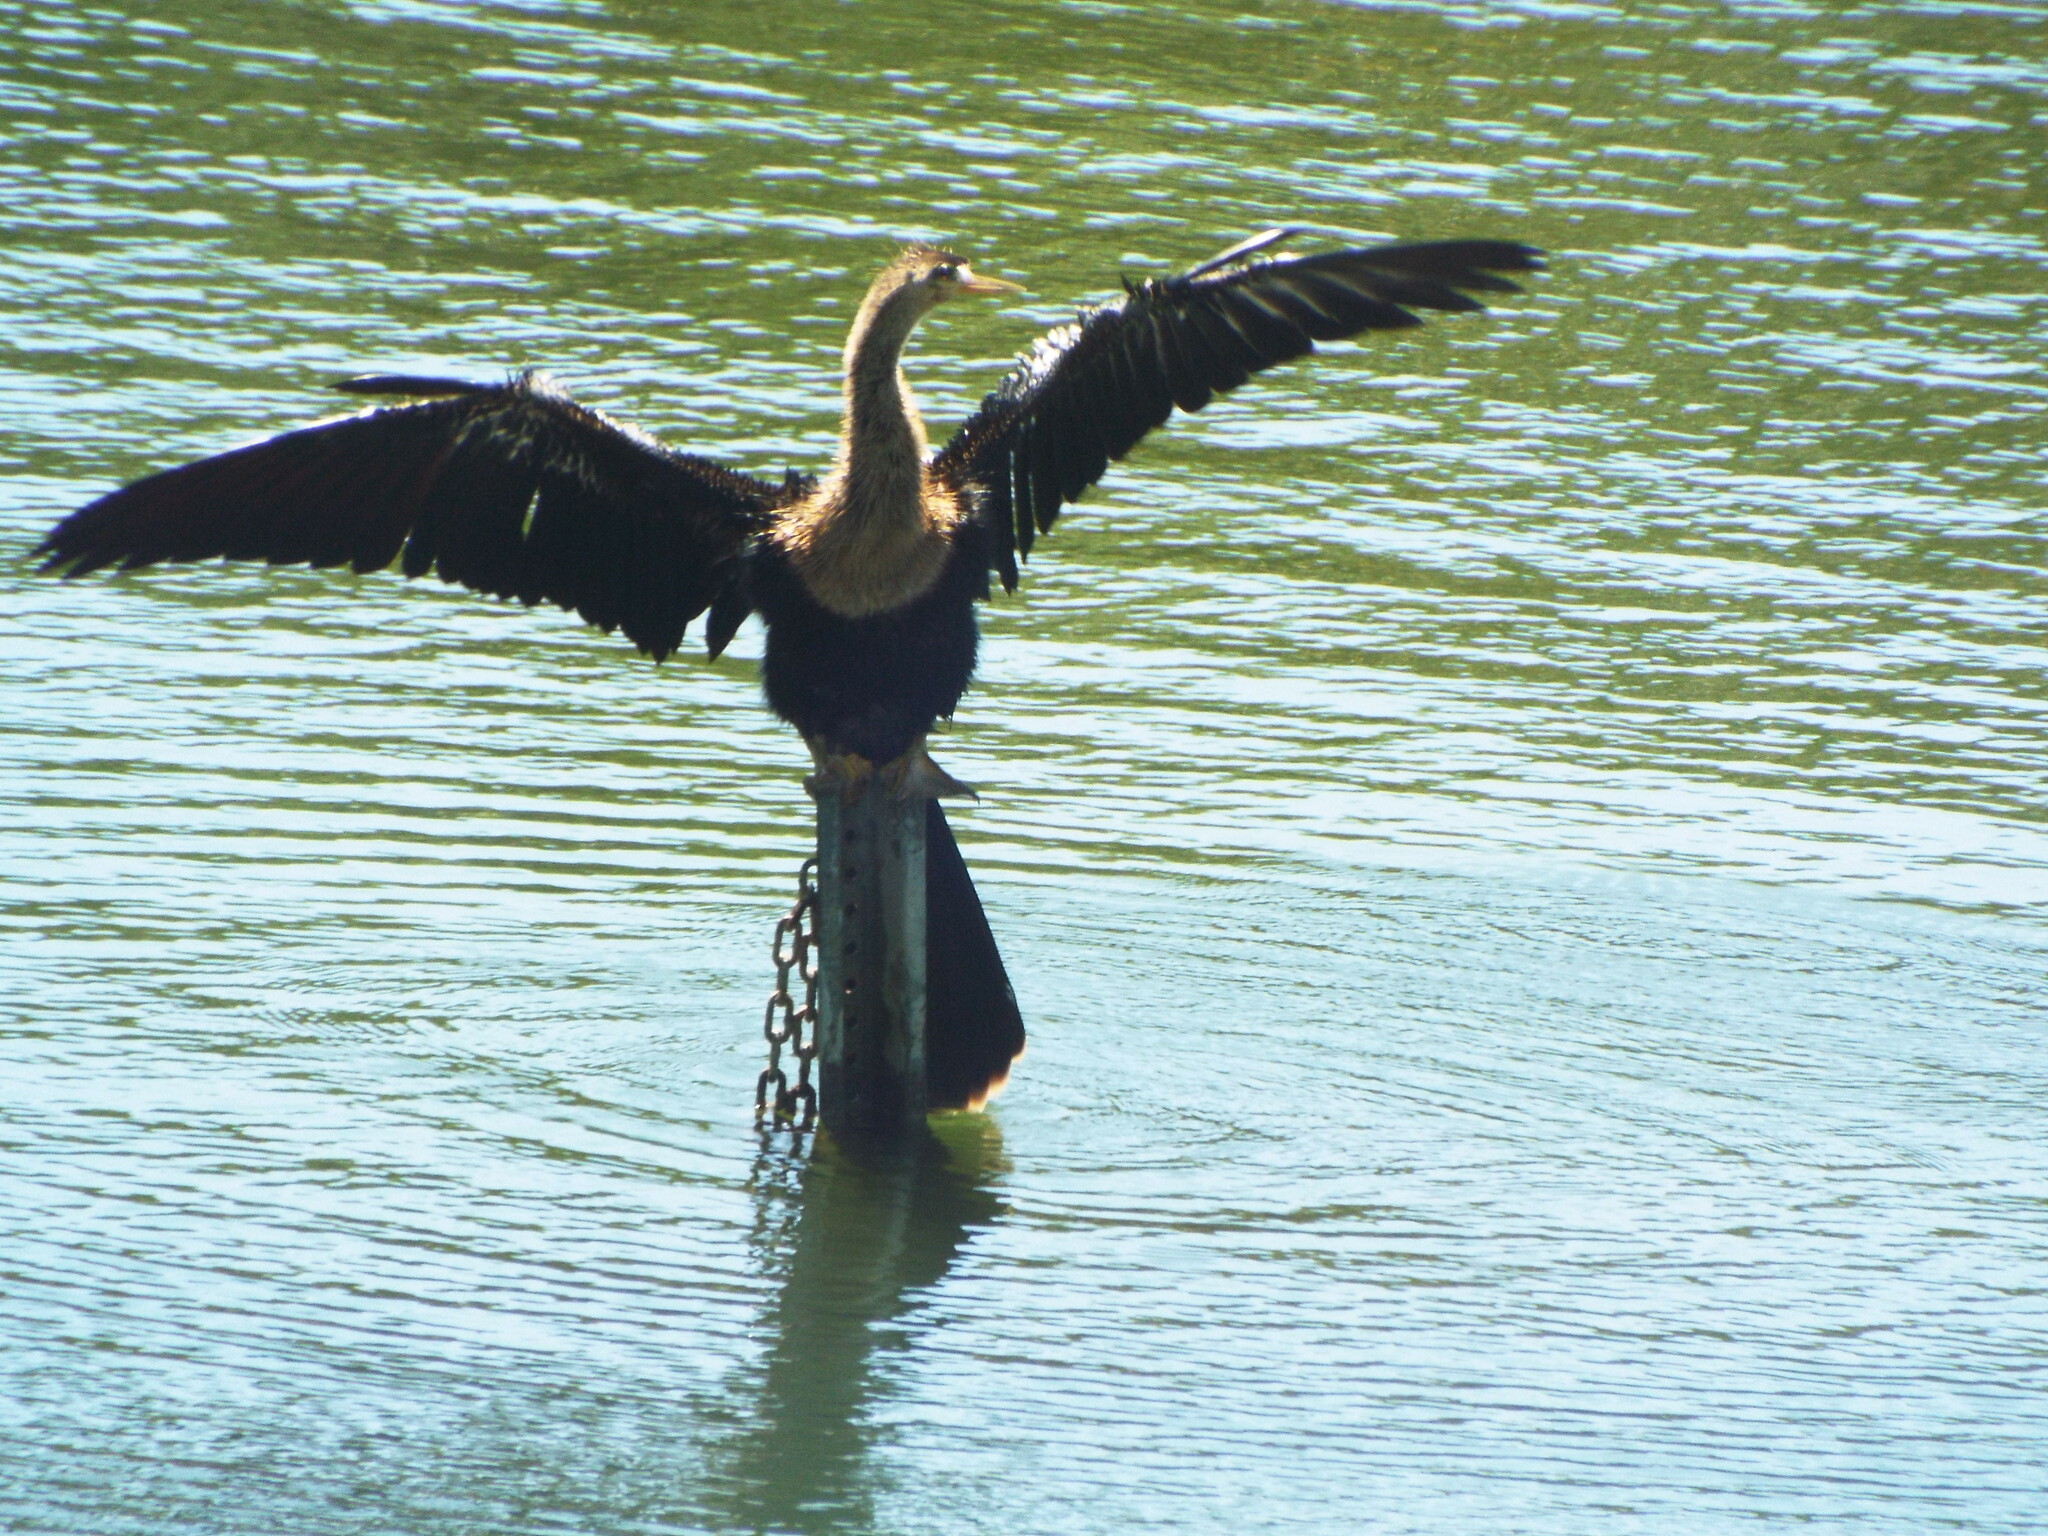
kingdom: Animalia
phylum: Chordata
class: Aves
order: Suliformes
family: Anhingidae
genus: Anhinga
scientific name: Anhinga anhinga
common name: Anhinga
